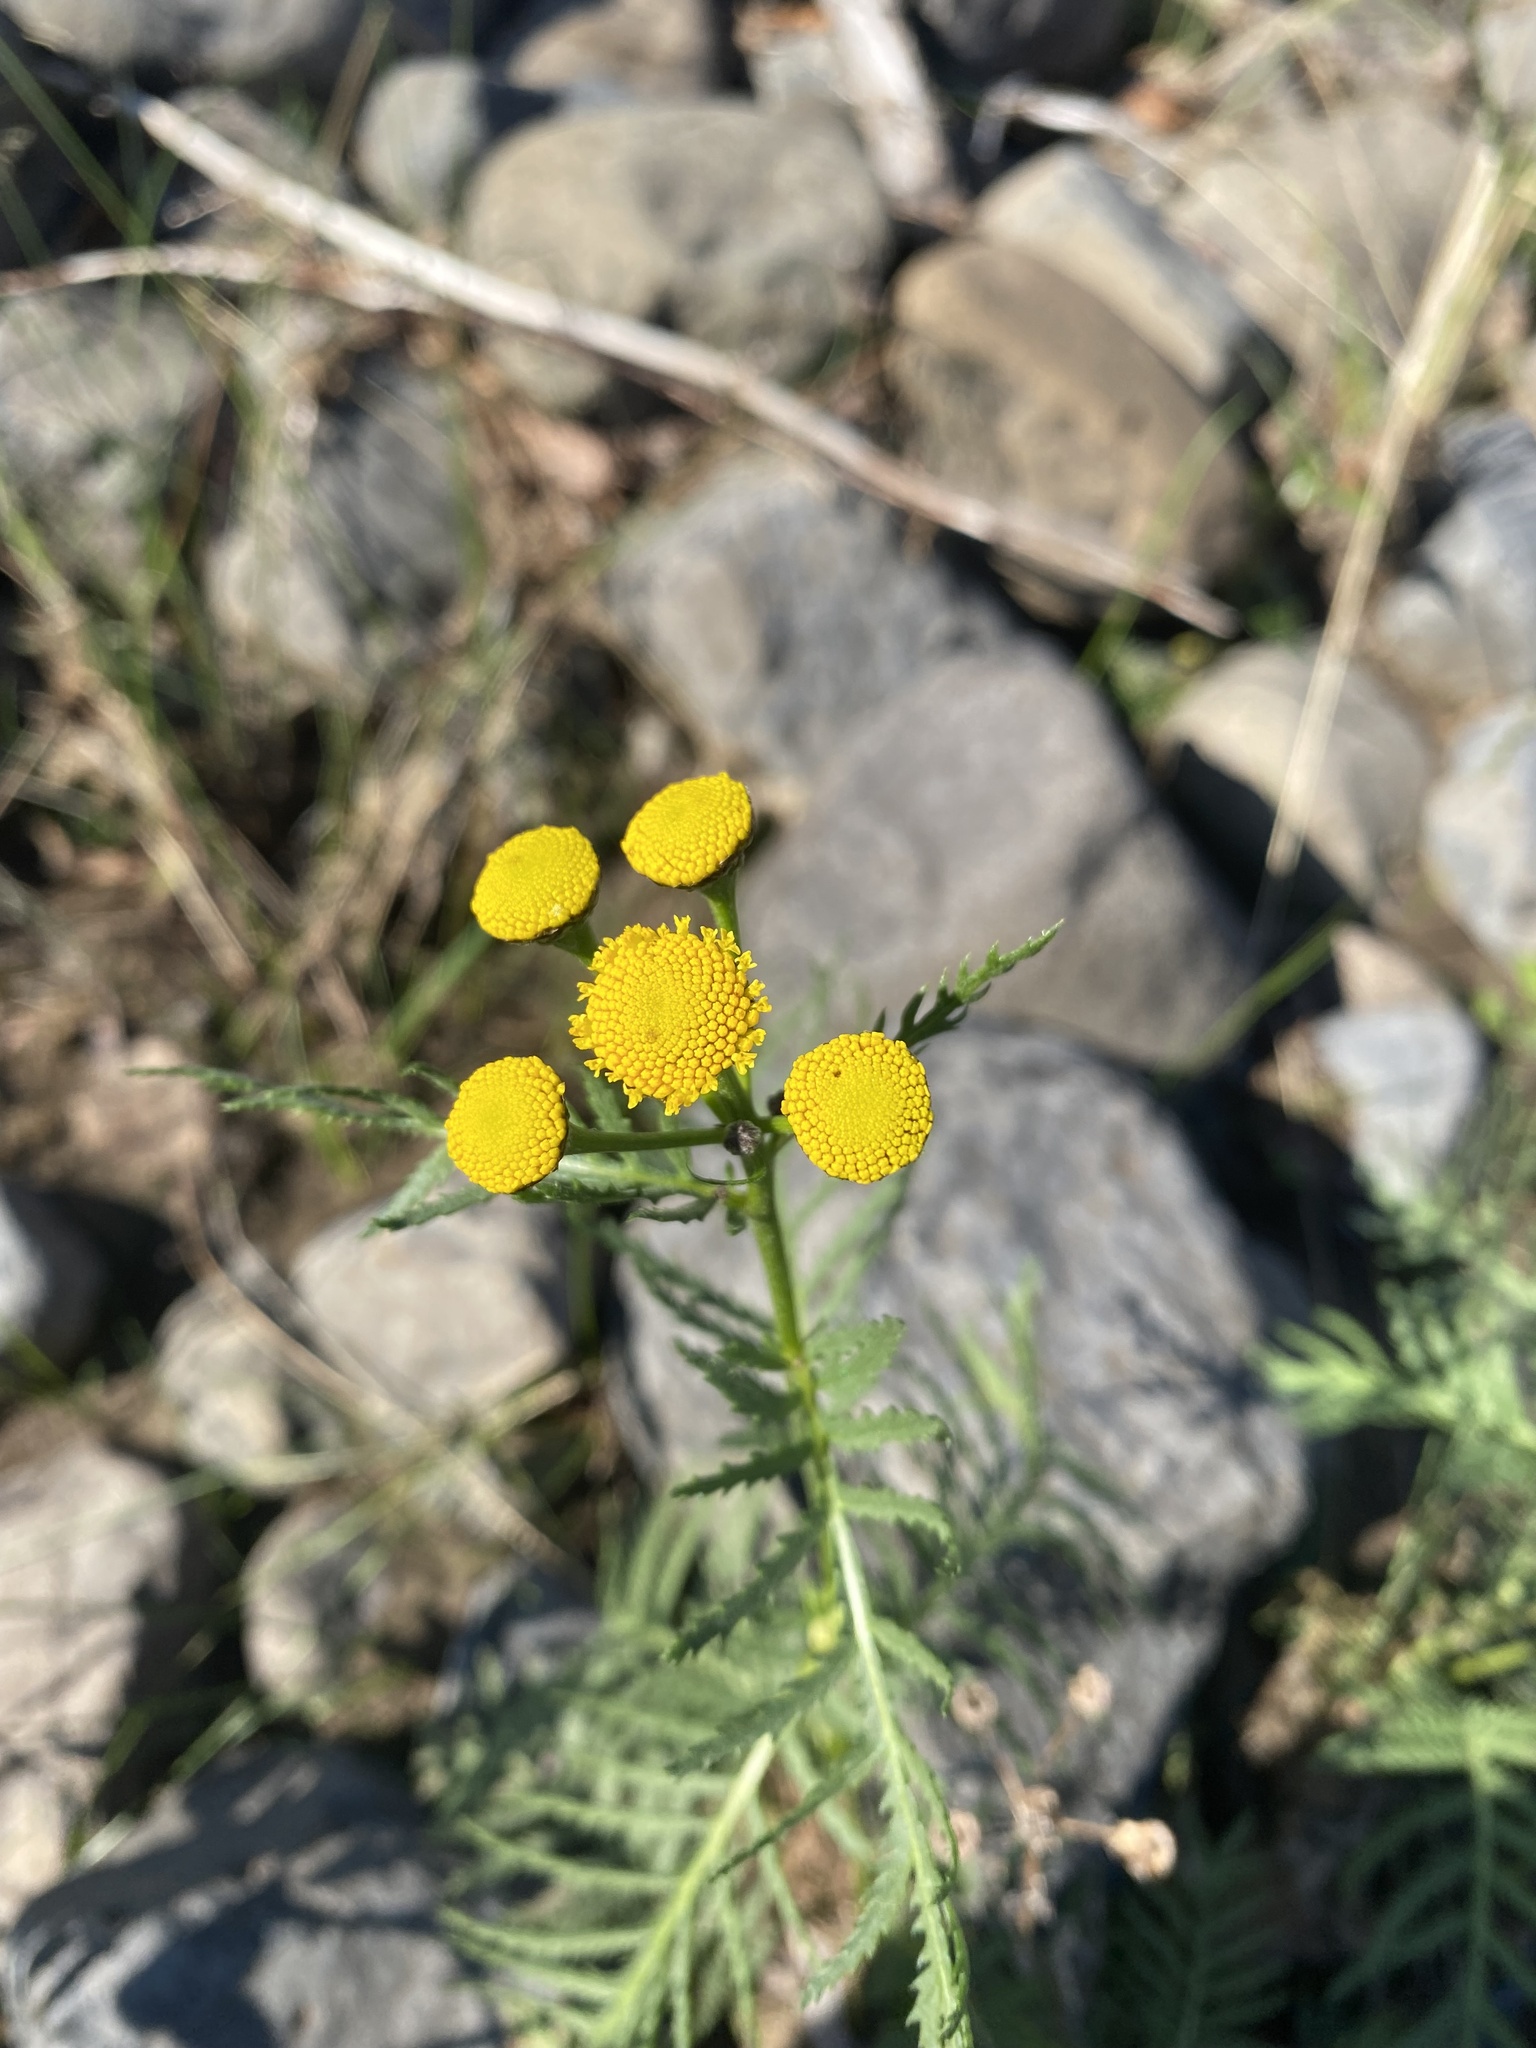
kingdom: Plantae
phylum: Tracheophyta
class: Magnoliopsida
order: Asterales
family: Asteraceae
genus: Tanacetum
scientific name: Tanacetum vulgare
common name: Common tansy
